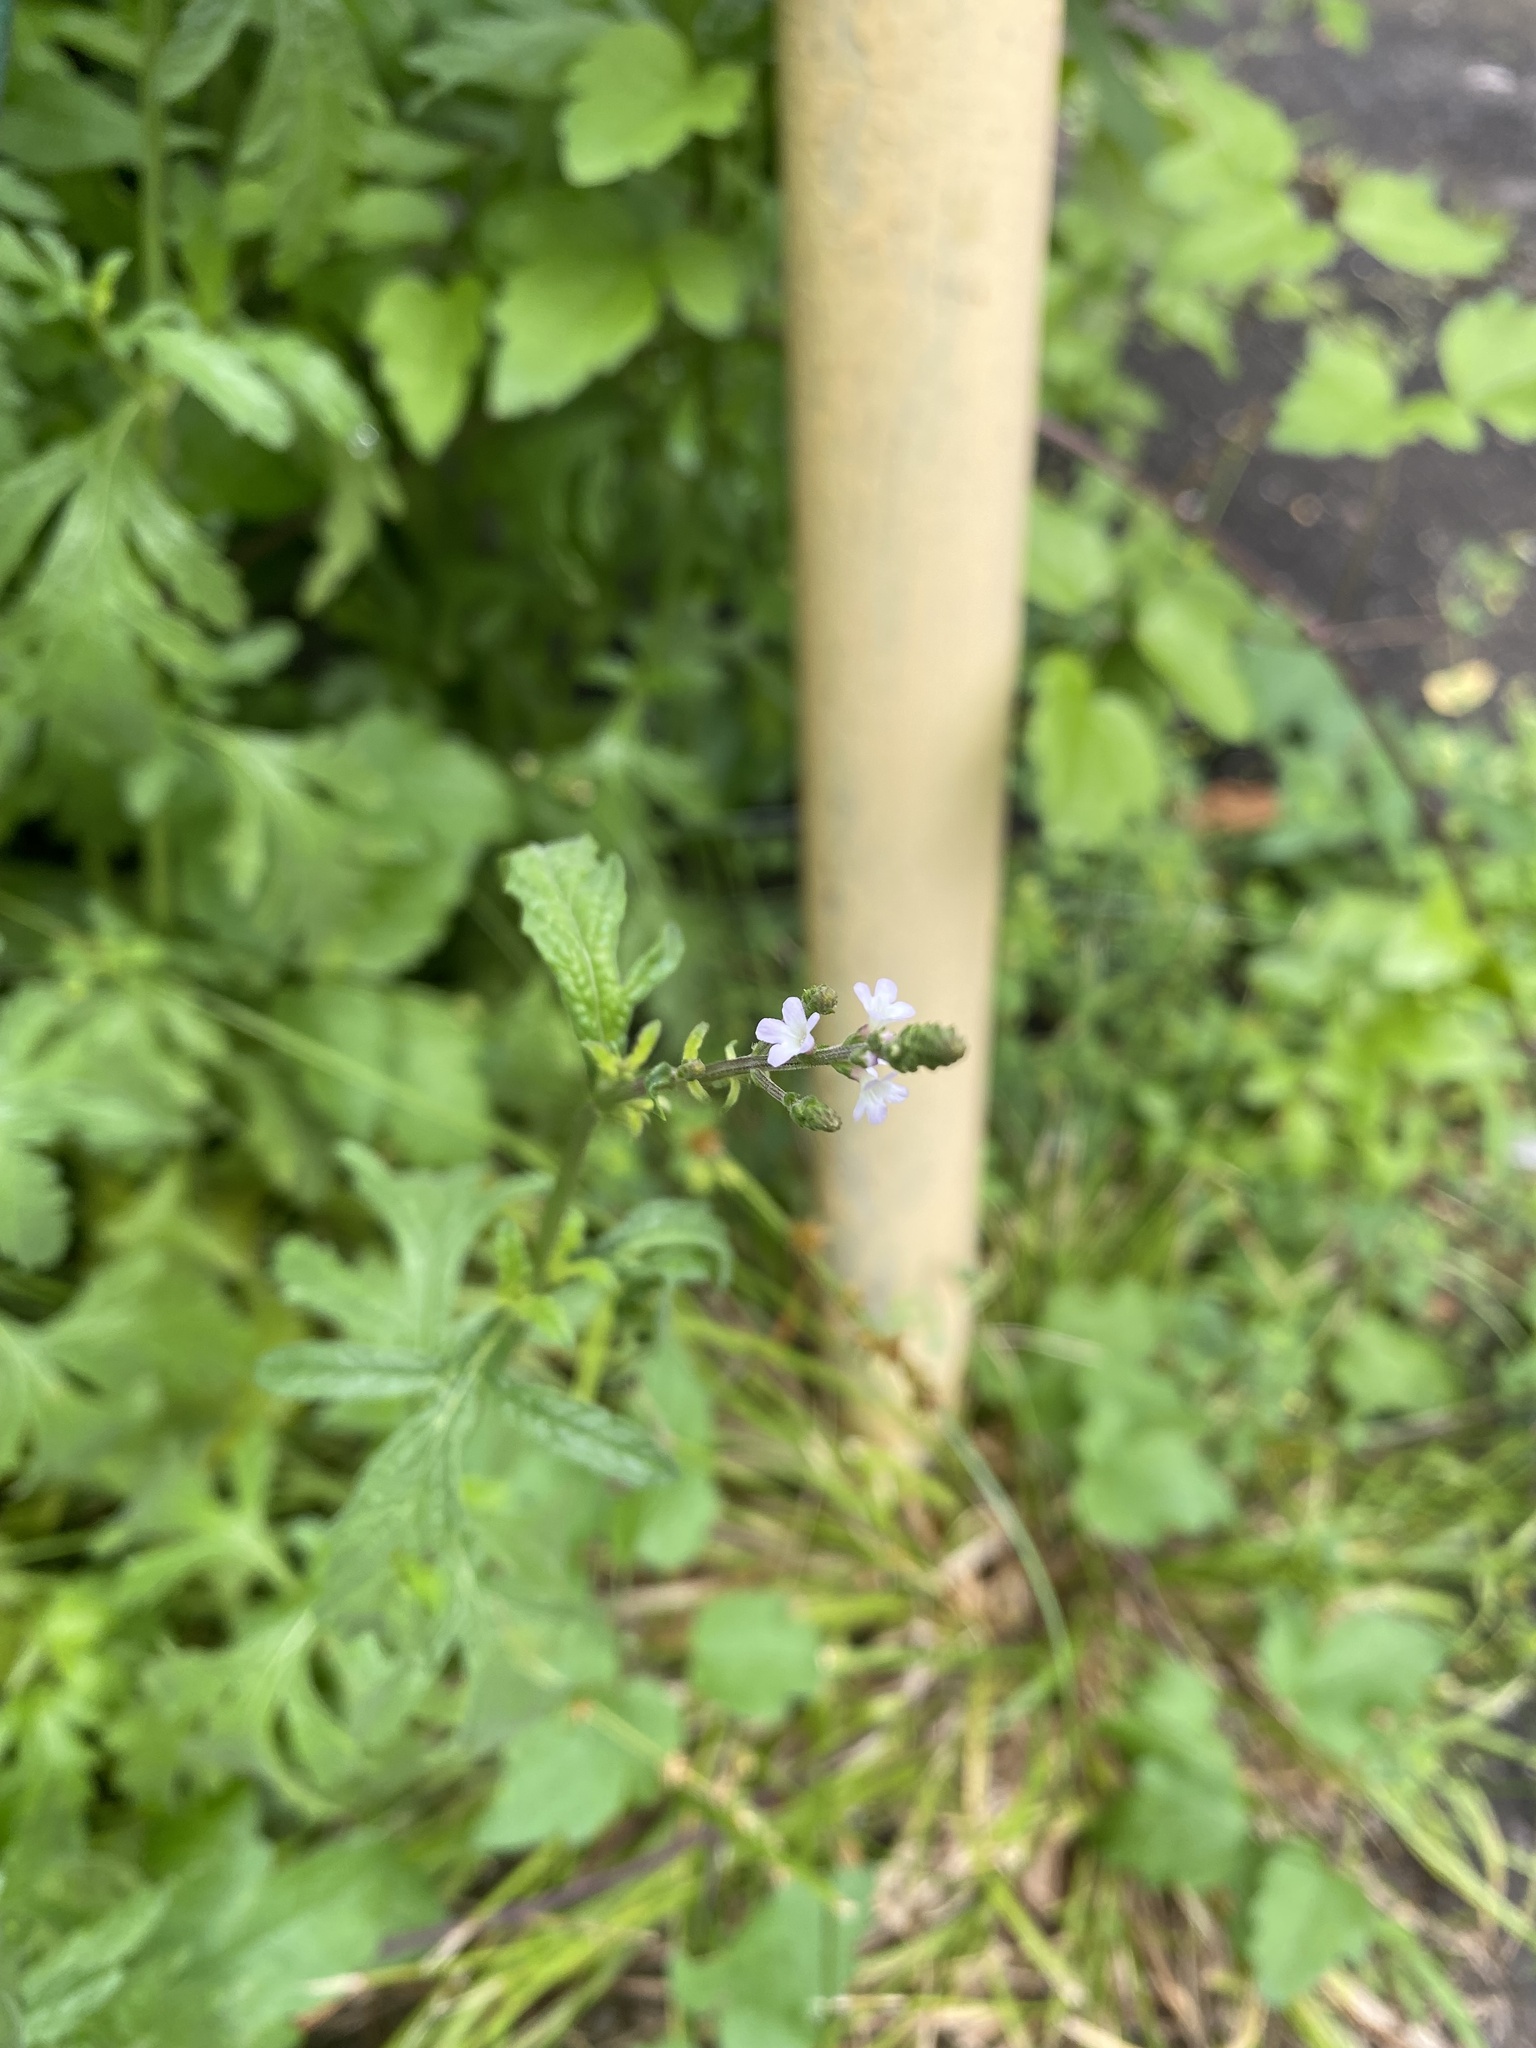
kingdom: Plantae
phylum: Tracheophyta
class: Magnoliopsida
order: Lamiales
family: Verbenaceae
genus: Verbena
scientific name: Verbena officinalis
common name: Vervain
